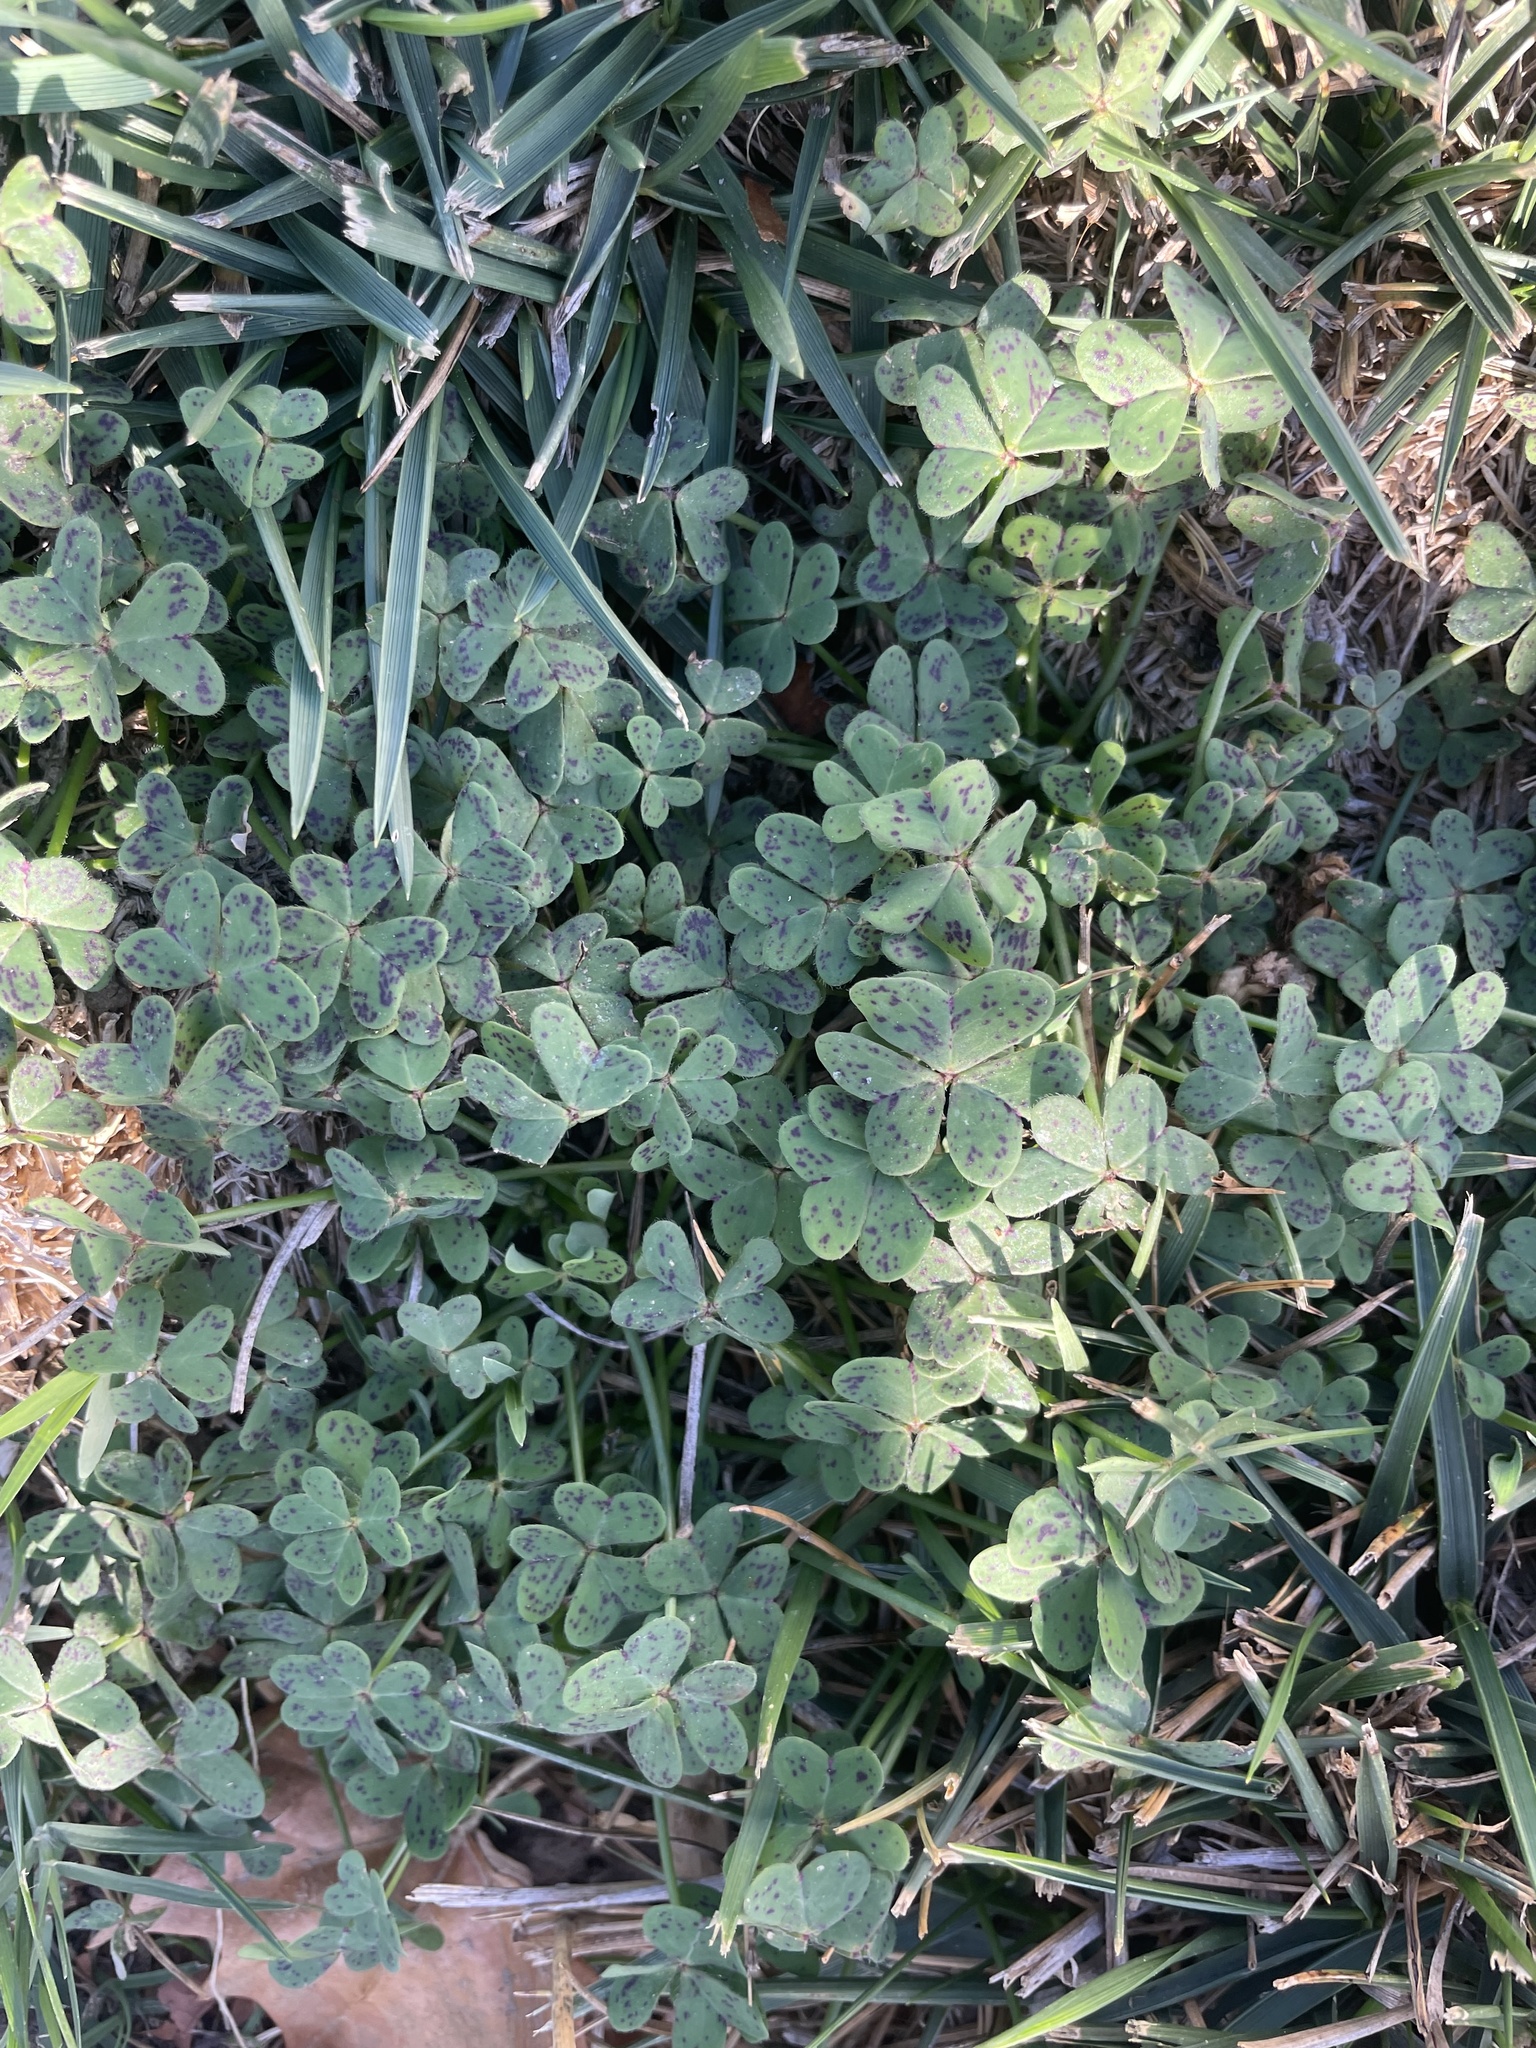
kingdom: Plantae
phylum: Tracheophyta
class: Magnoliopsida
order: Oxalidales
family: Oxalidaceae
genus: Oxalis
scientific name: Oxalis pes-caprae
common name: Bermuda-buttercup
